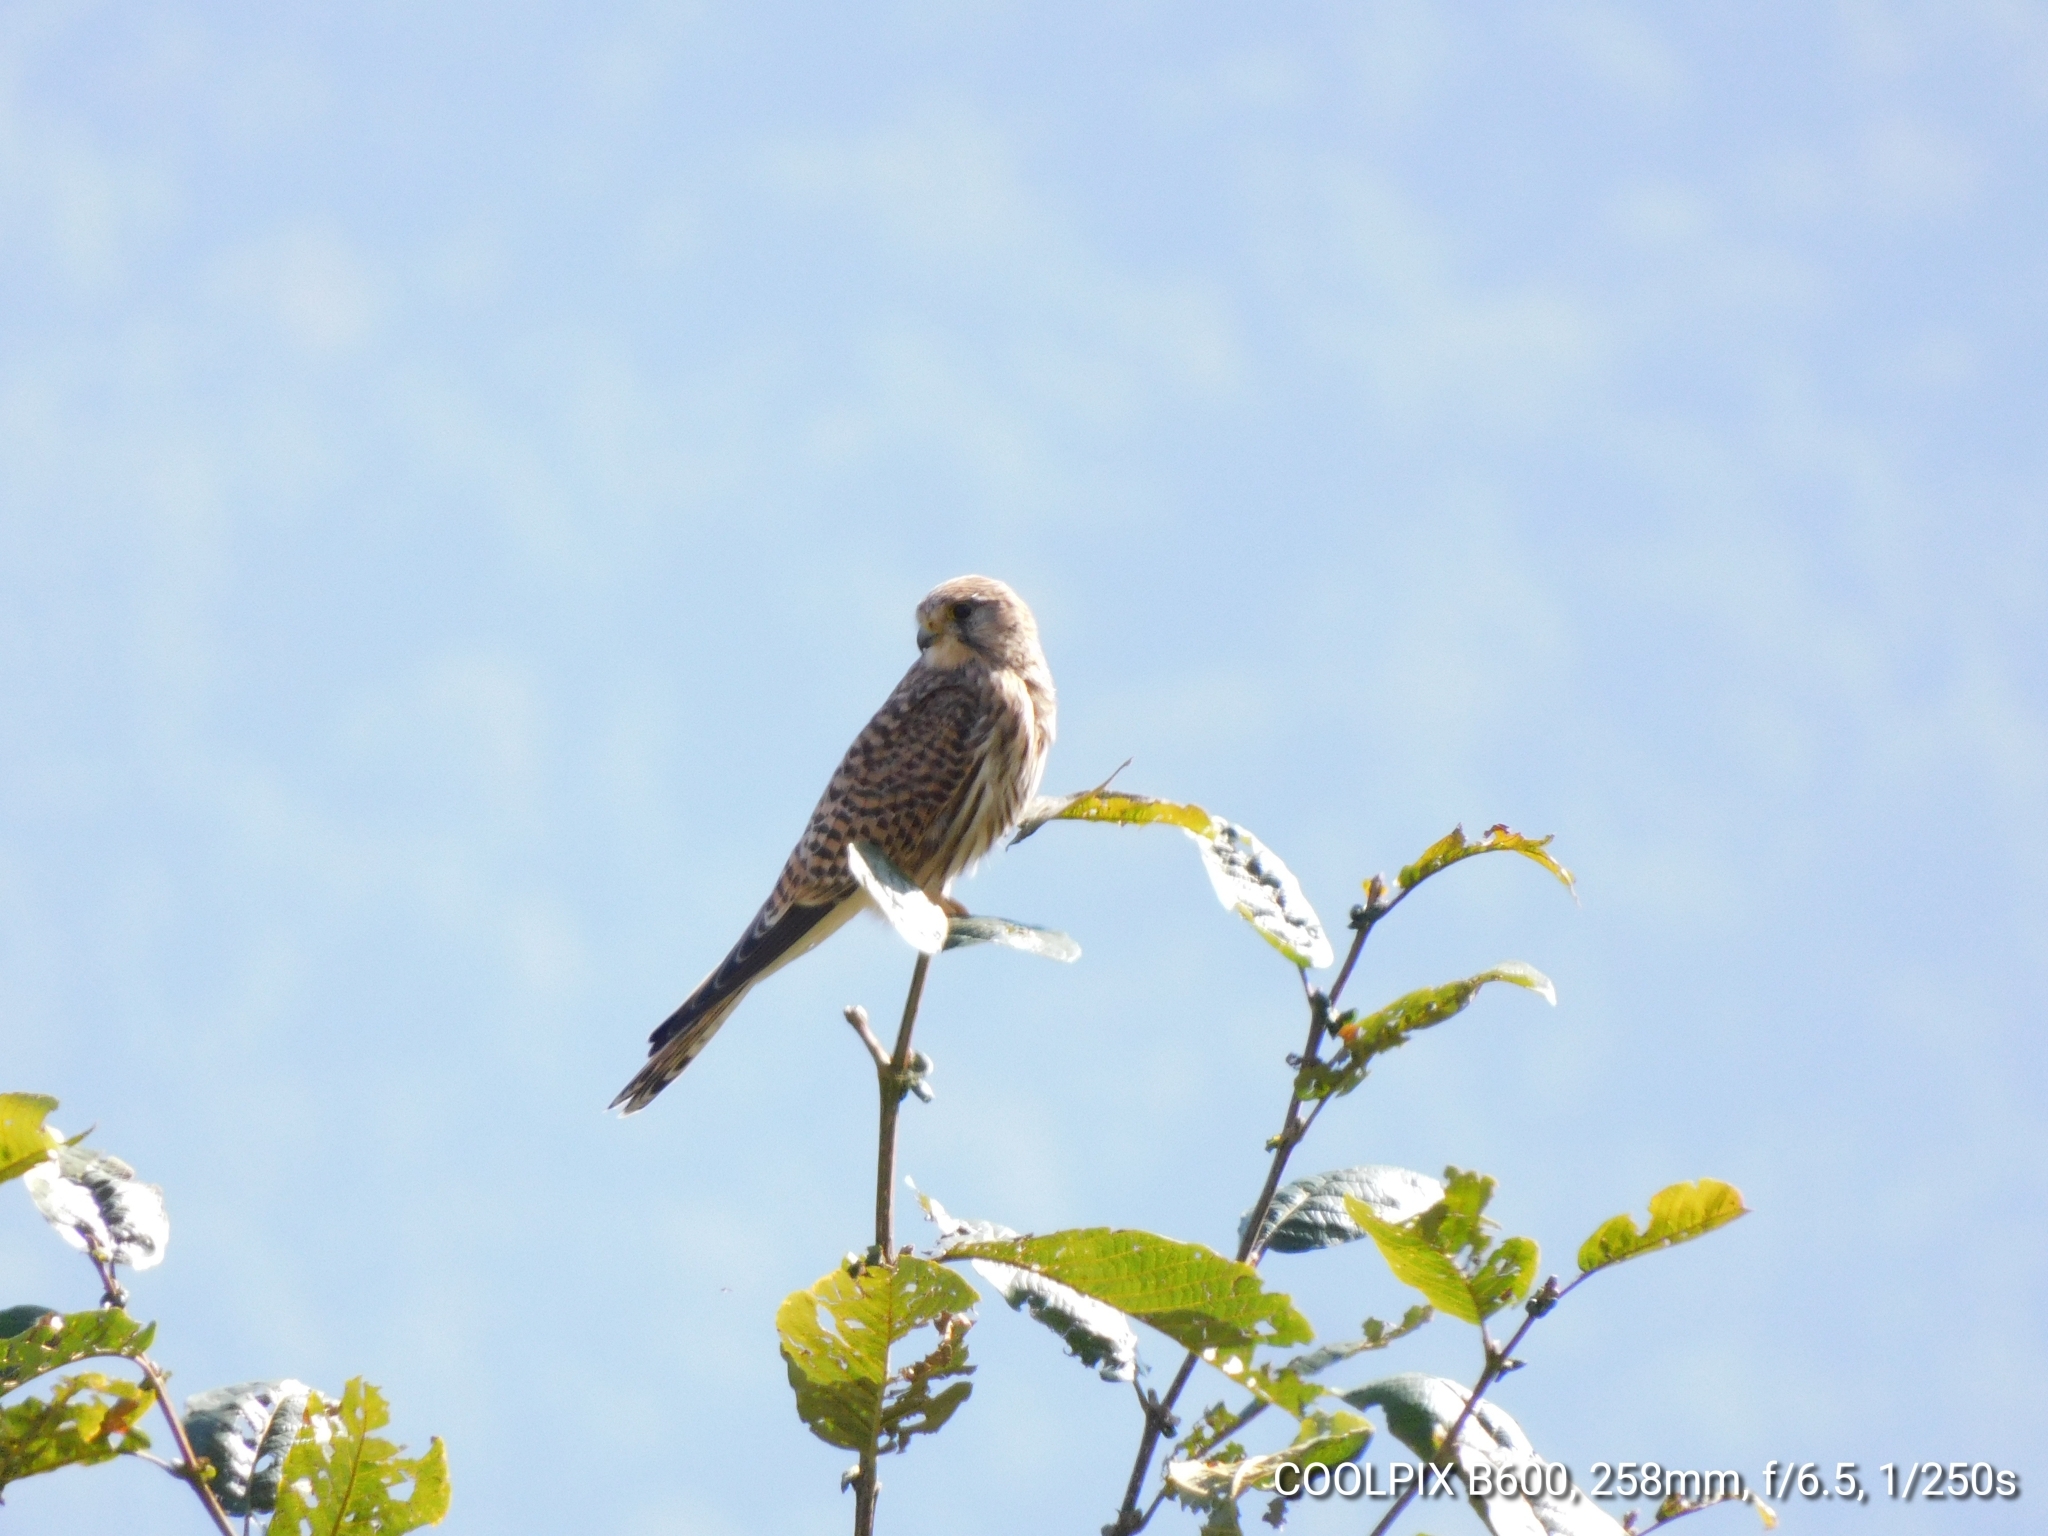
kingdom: Animalia
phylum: Chordata
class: Aves
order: Falconiformes
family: Falconidae
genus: Falco
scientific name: Falco tinnunculus
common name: Common kestrel
